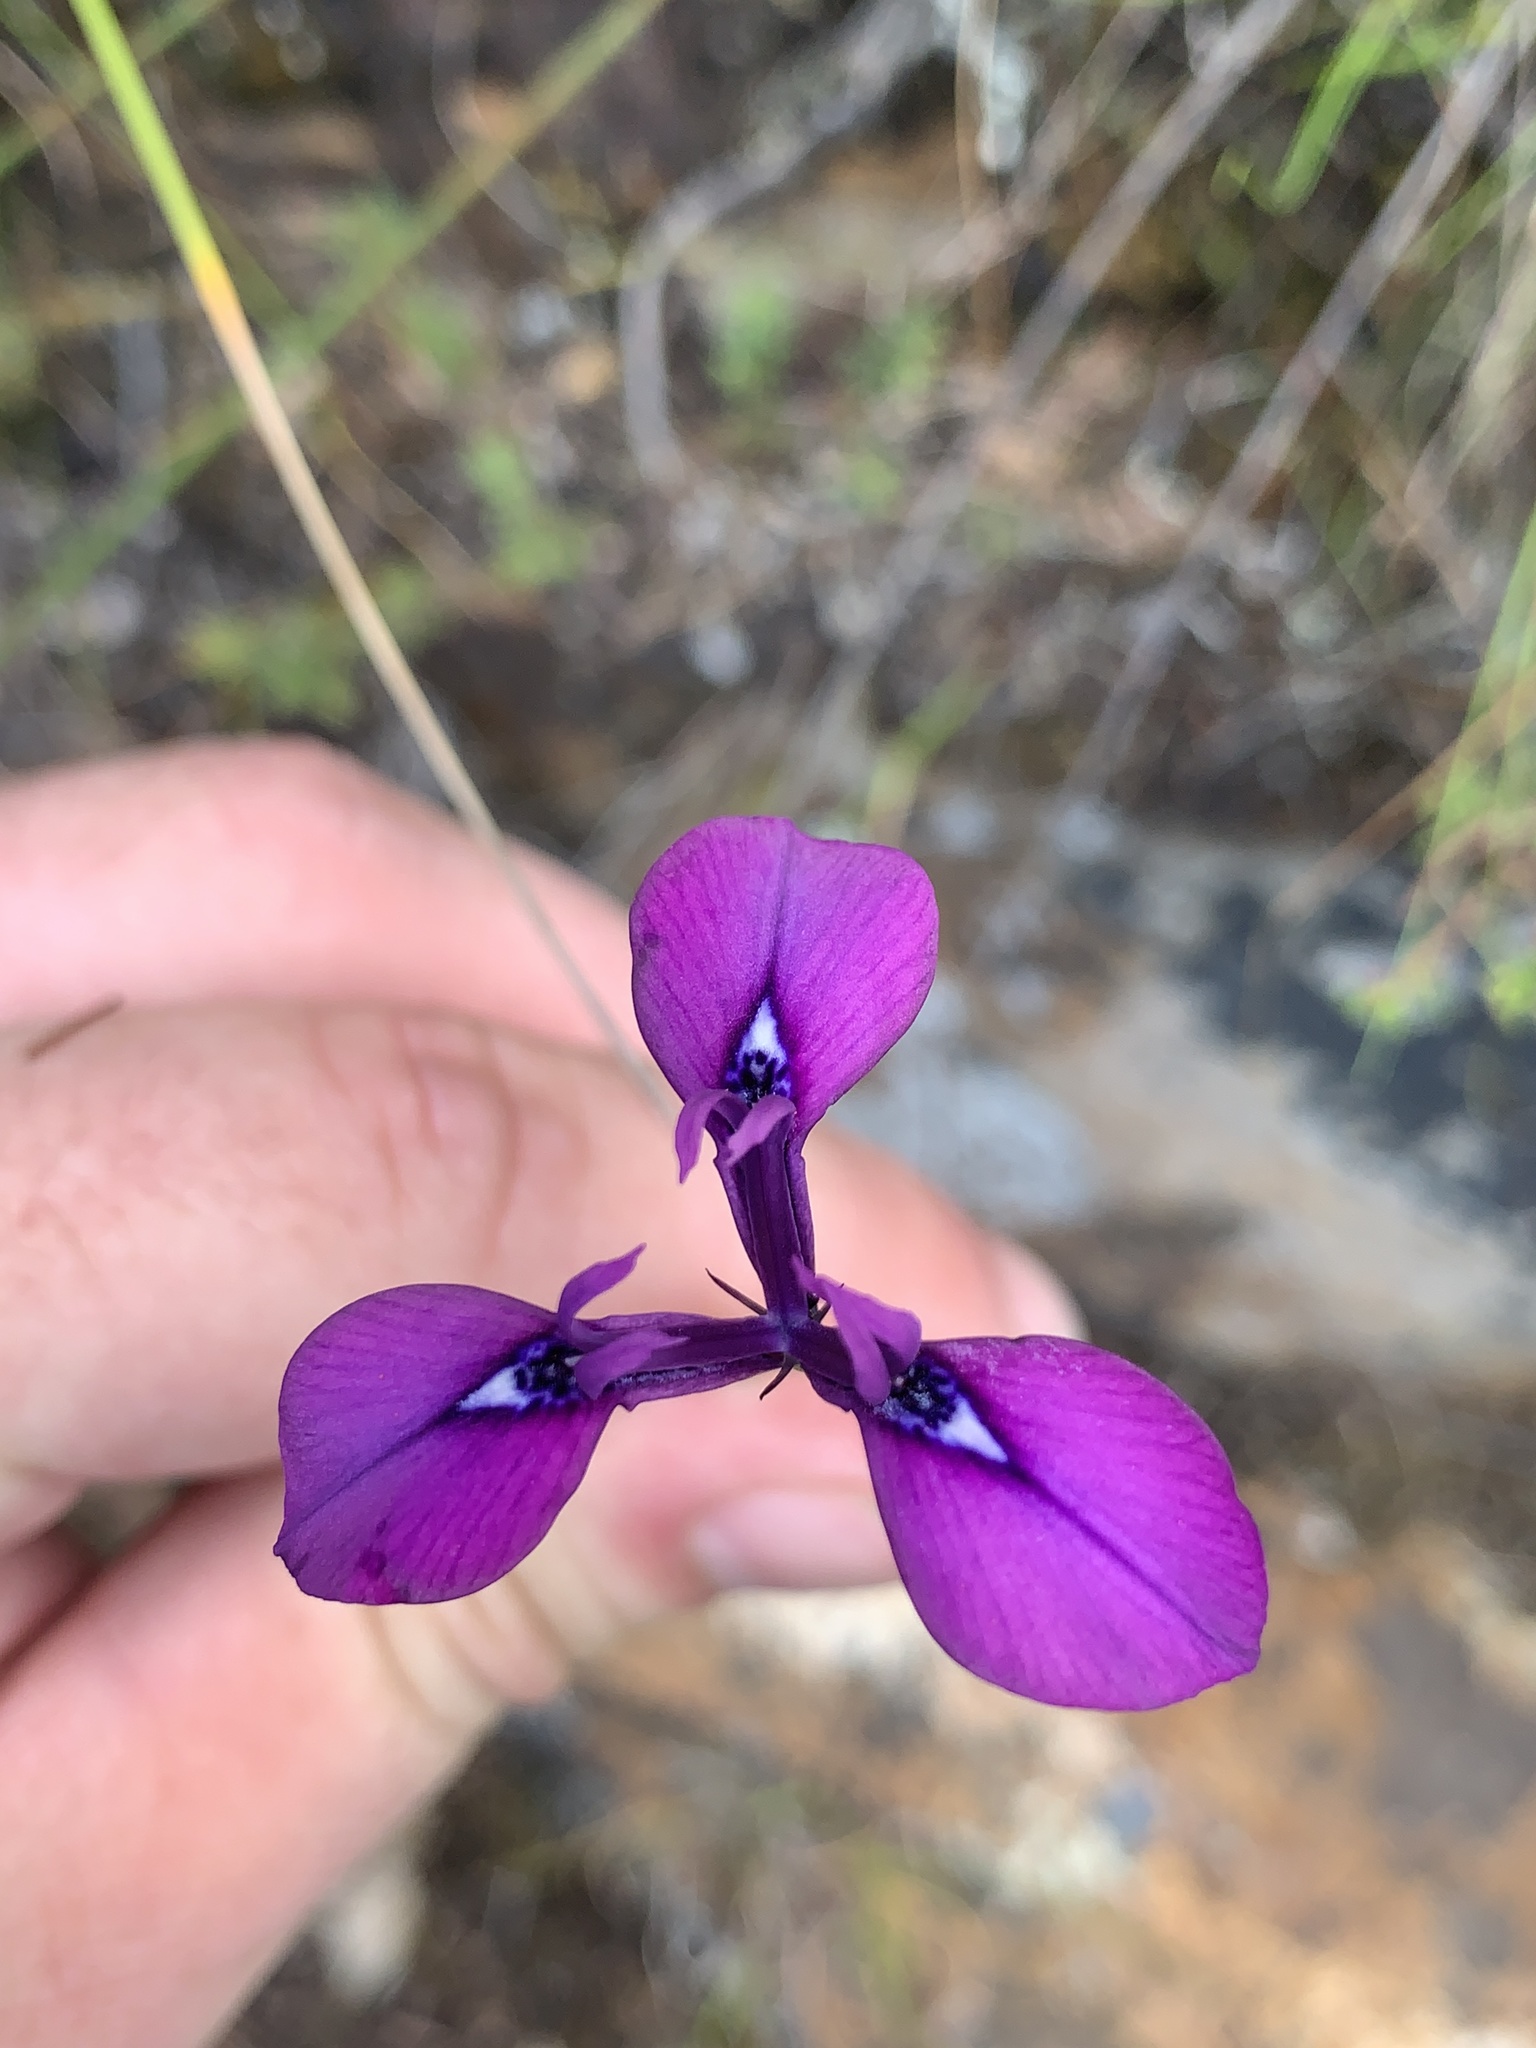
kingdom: Plantae
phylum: Tracheophyta
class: Liliopsida
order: Asparagales
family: Iridaceae
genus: Moraea
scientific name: Moraea tripetala
